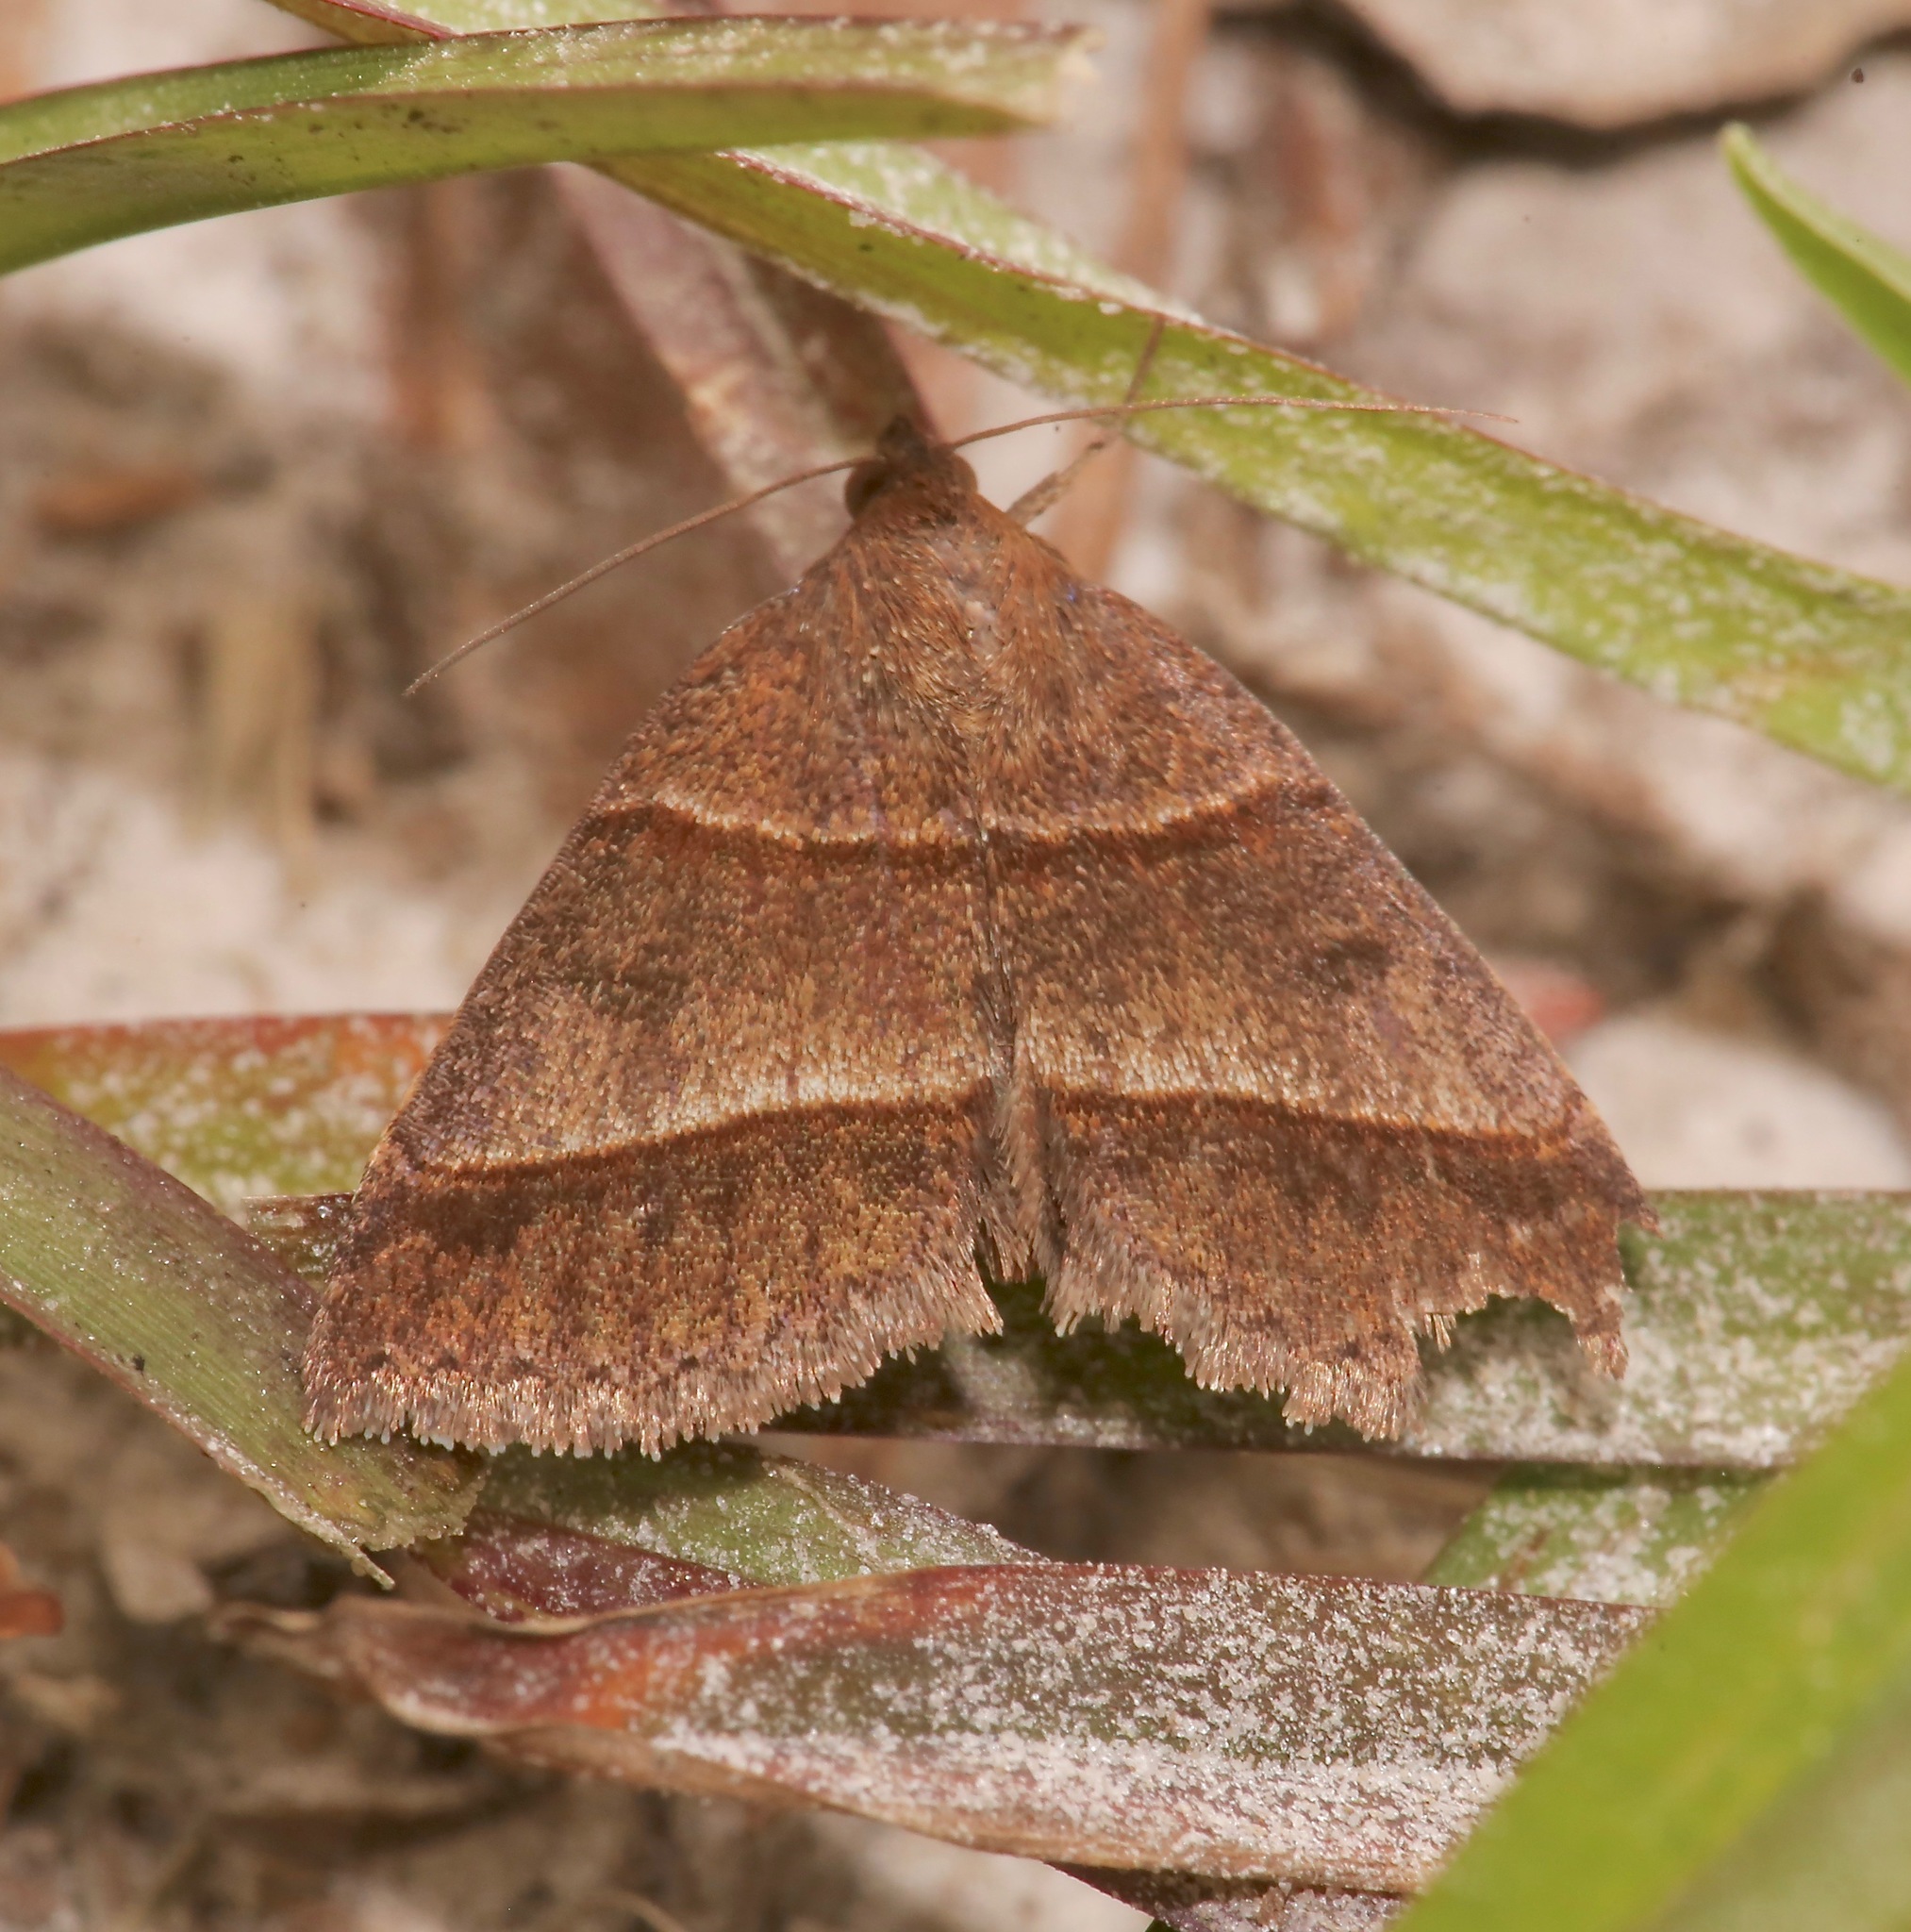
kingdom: Animalia
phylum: Arthropoda
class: Insecta
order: Lepidoptera
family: Erebidae
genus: Argyrostrotis
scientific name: Argyrostrotis sylvarum
